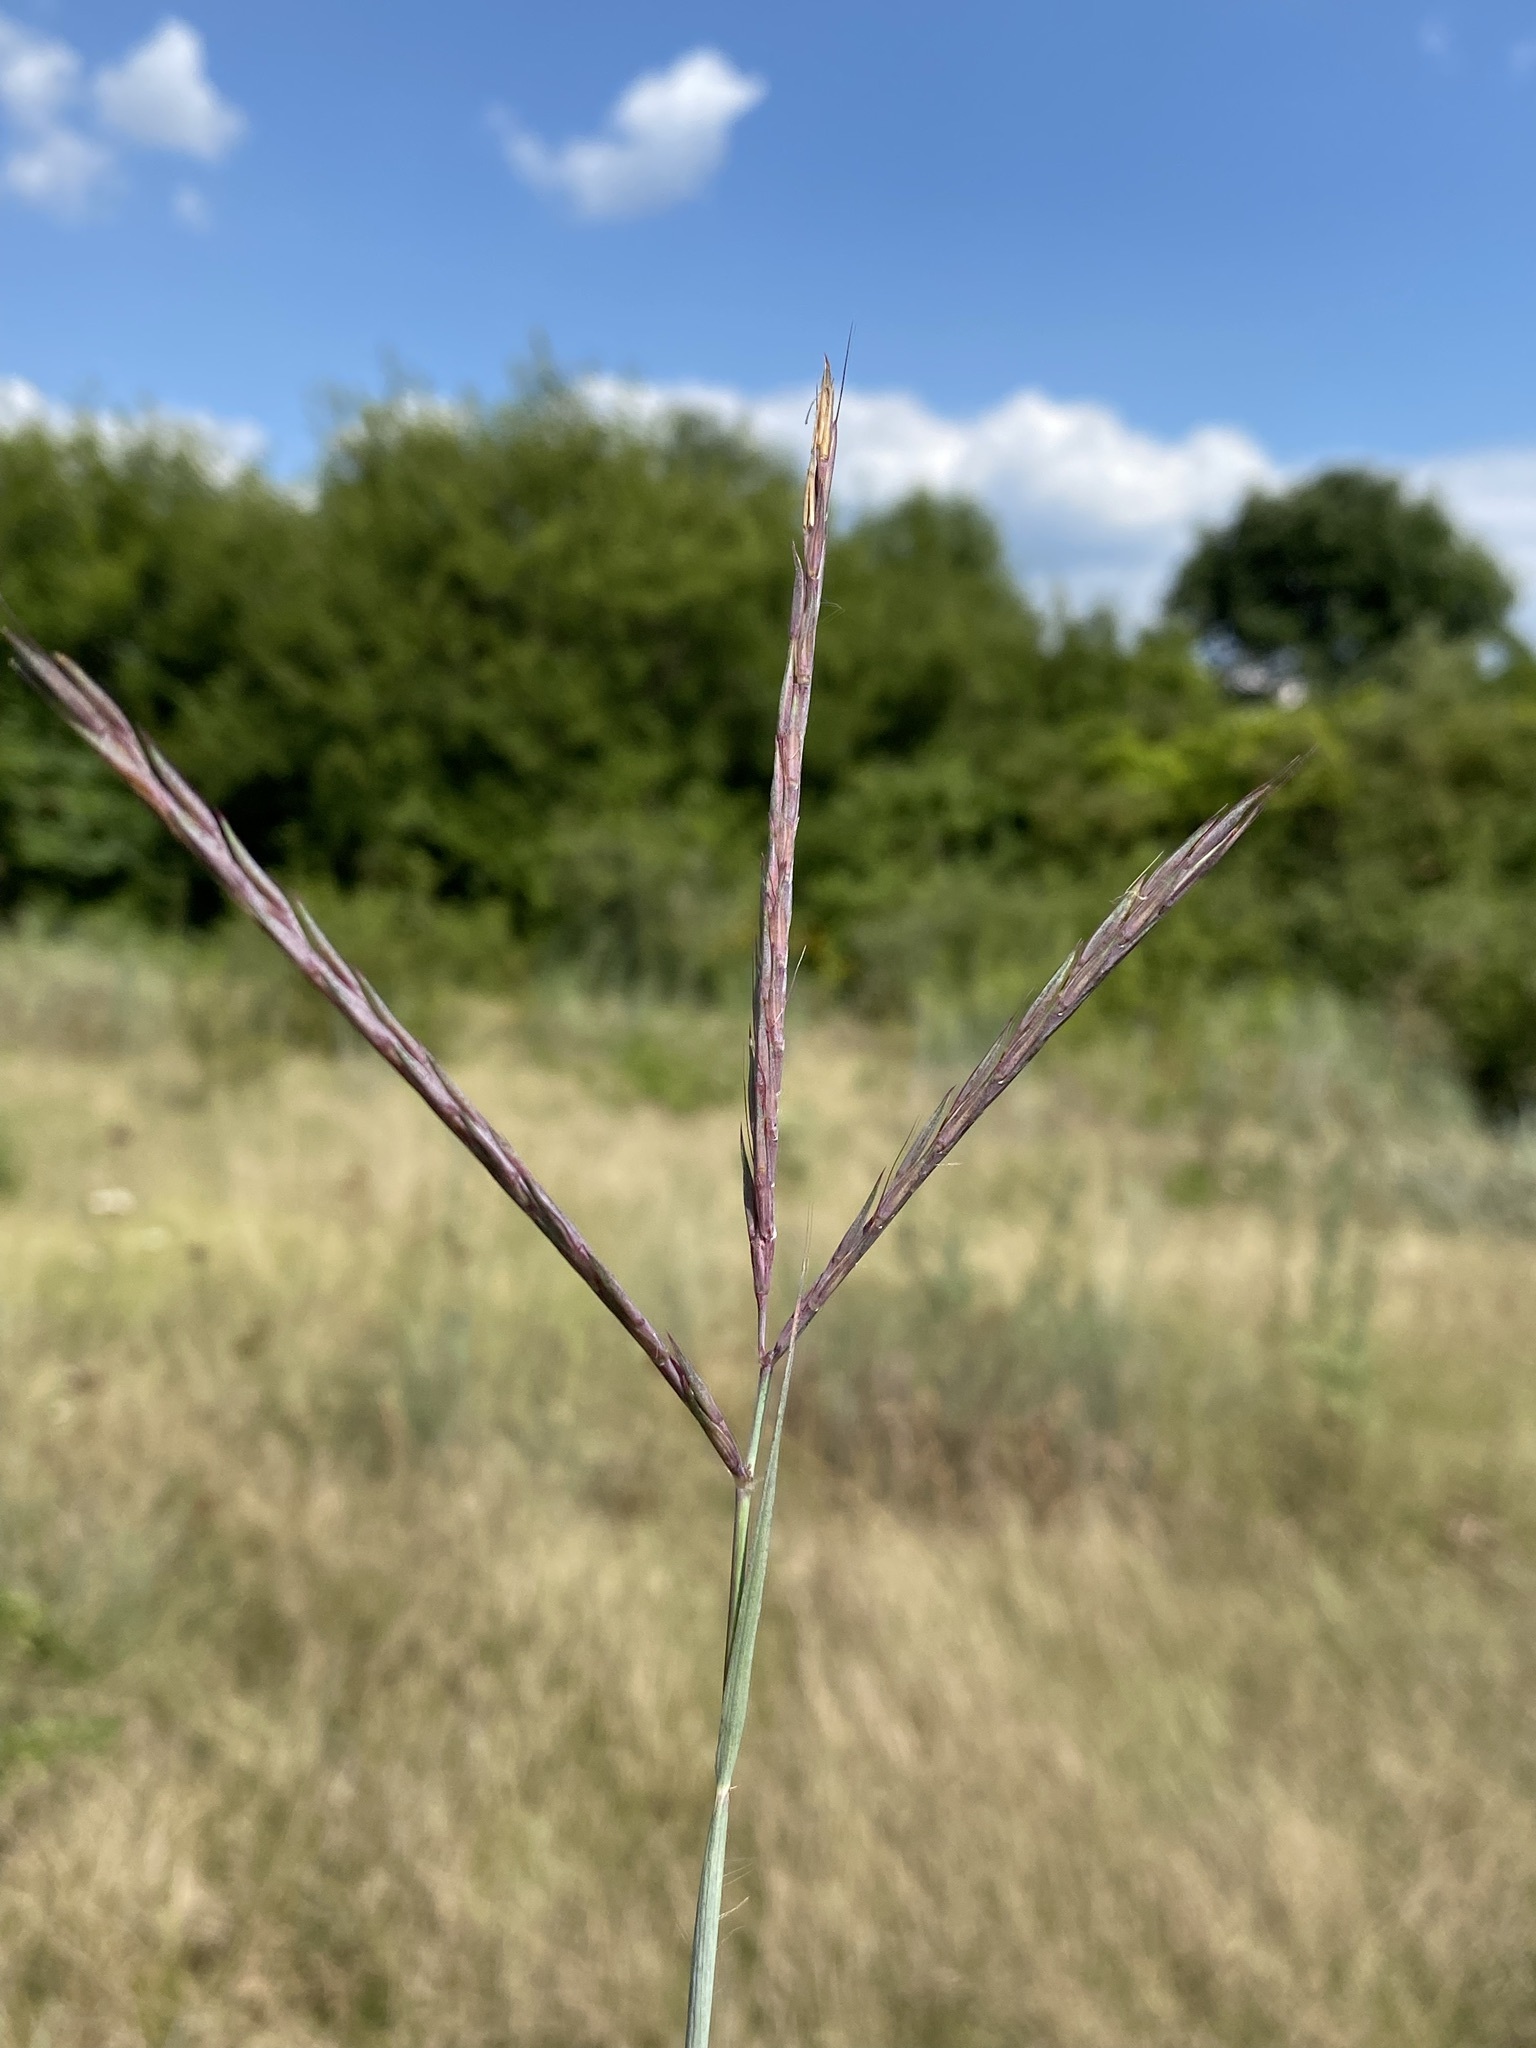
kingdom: Plantae
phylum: Tracheophyta
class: Liliopsida
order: Poales
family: Poaceae
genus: Andropogon
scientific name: Andropogon gerardi
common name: Big bluestem
